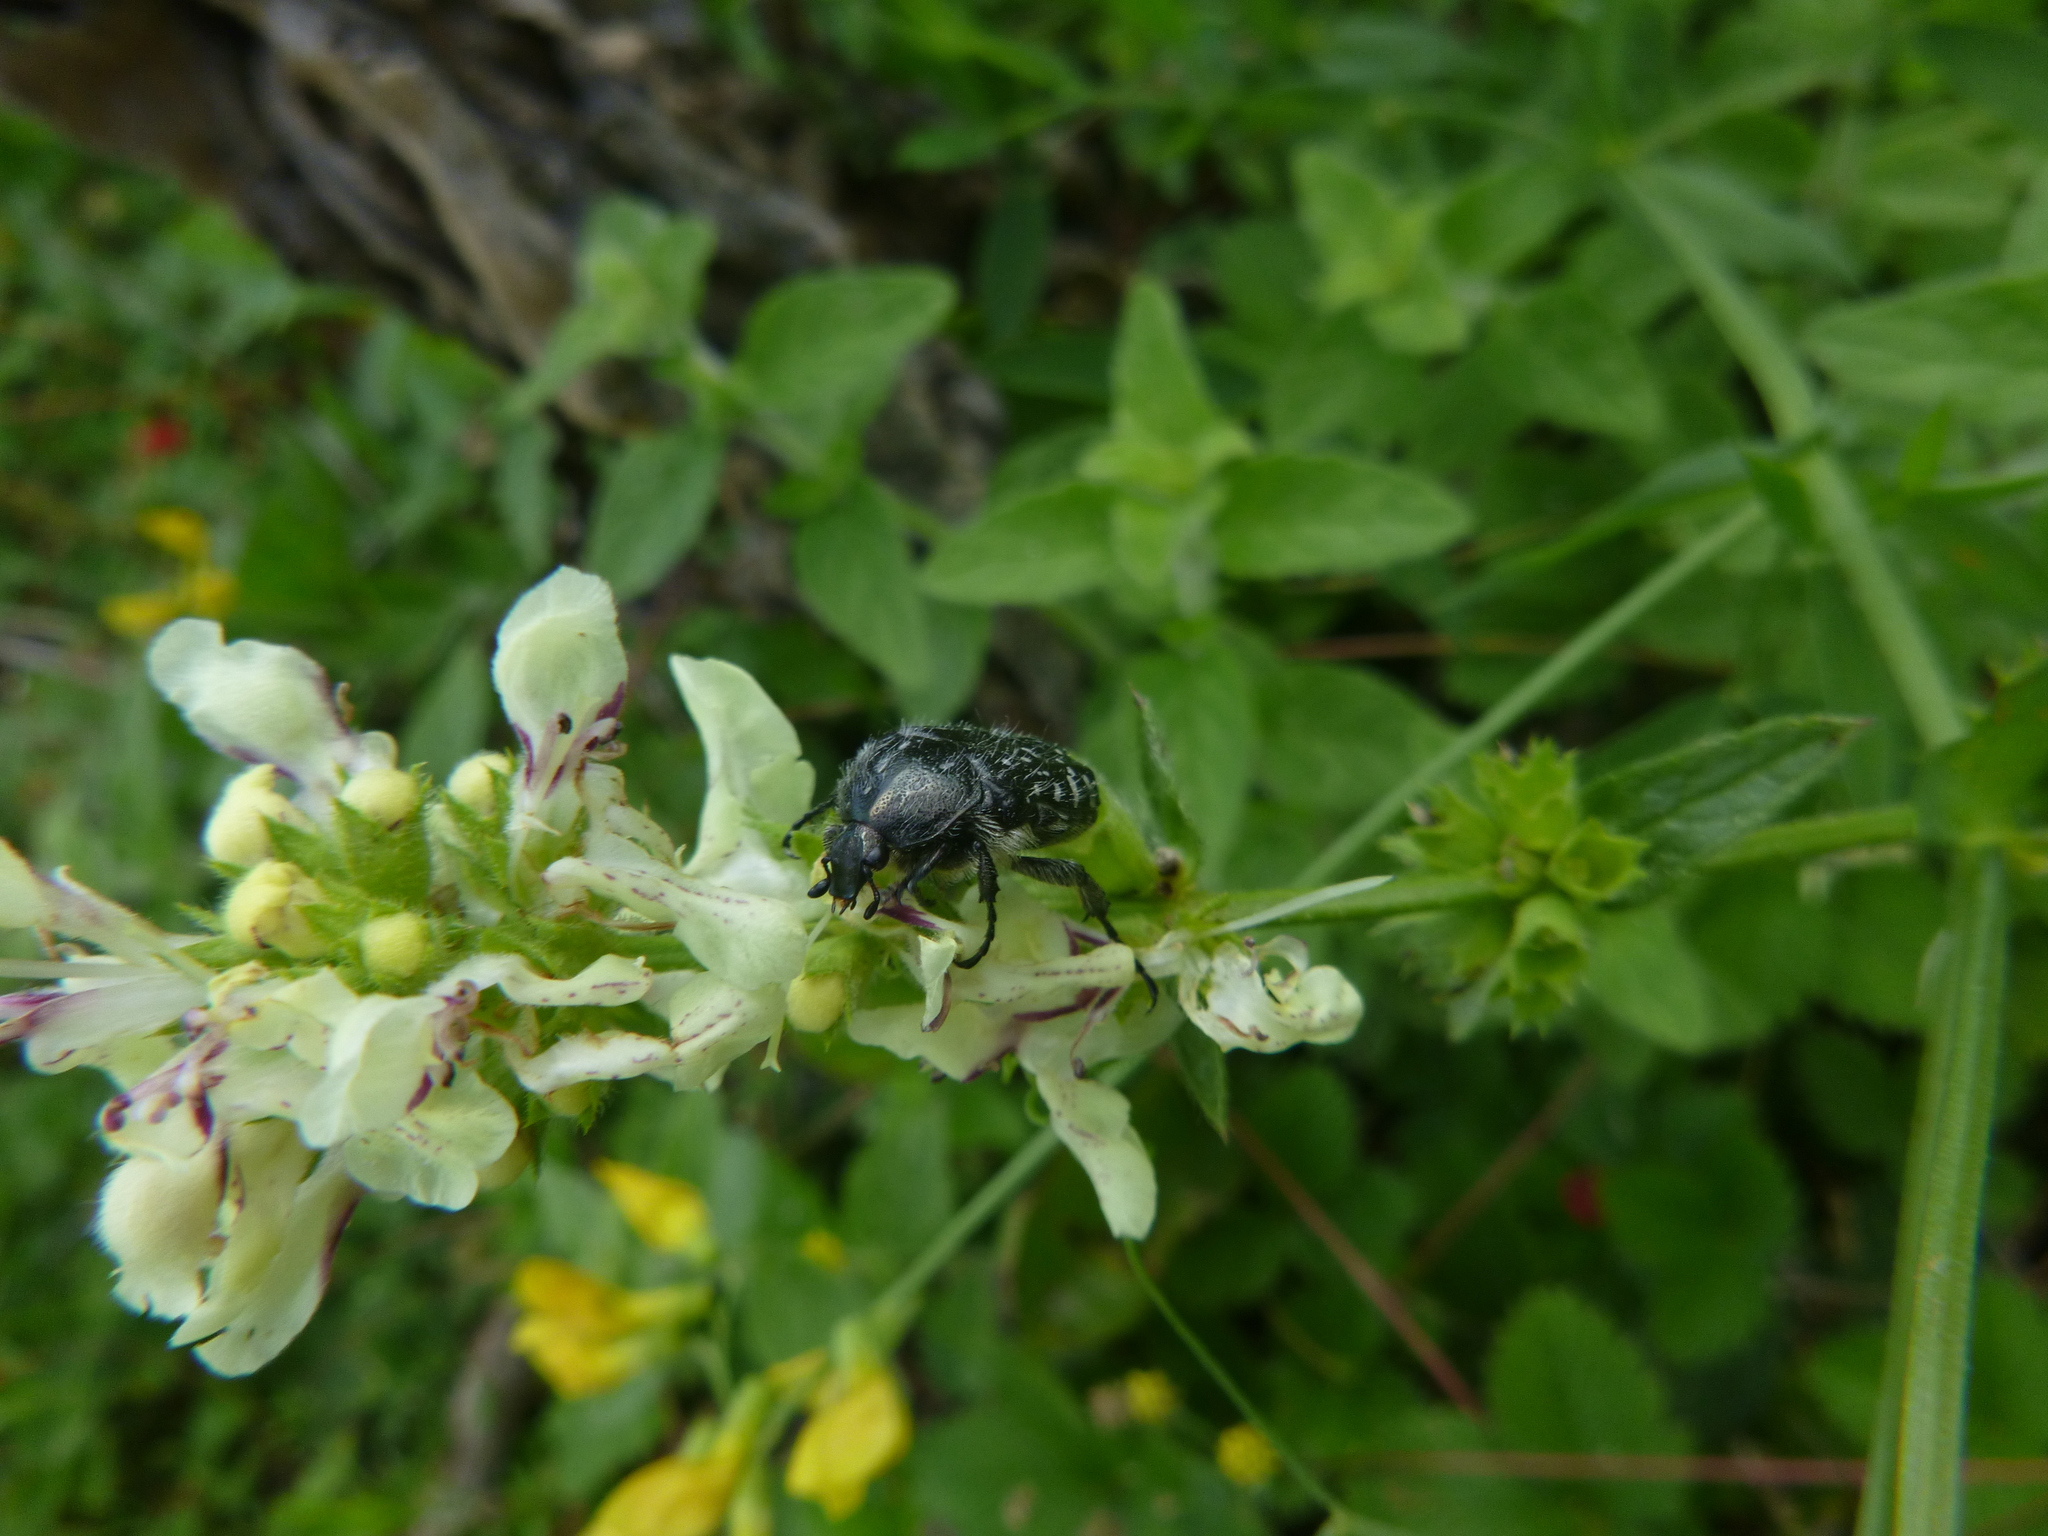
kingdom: Animalia
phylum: Arthropoda
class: Insecta
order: Coleoptera
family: Scarabaeidae
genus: Oxythyrea
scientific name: Oxythyrea funesta
